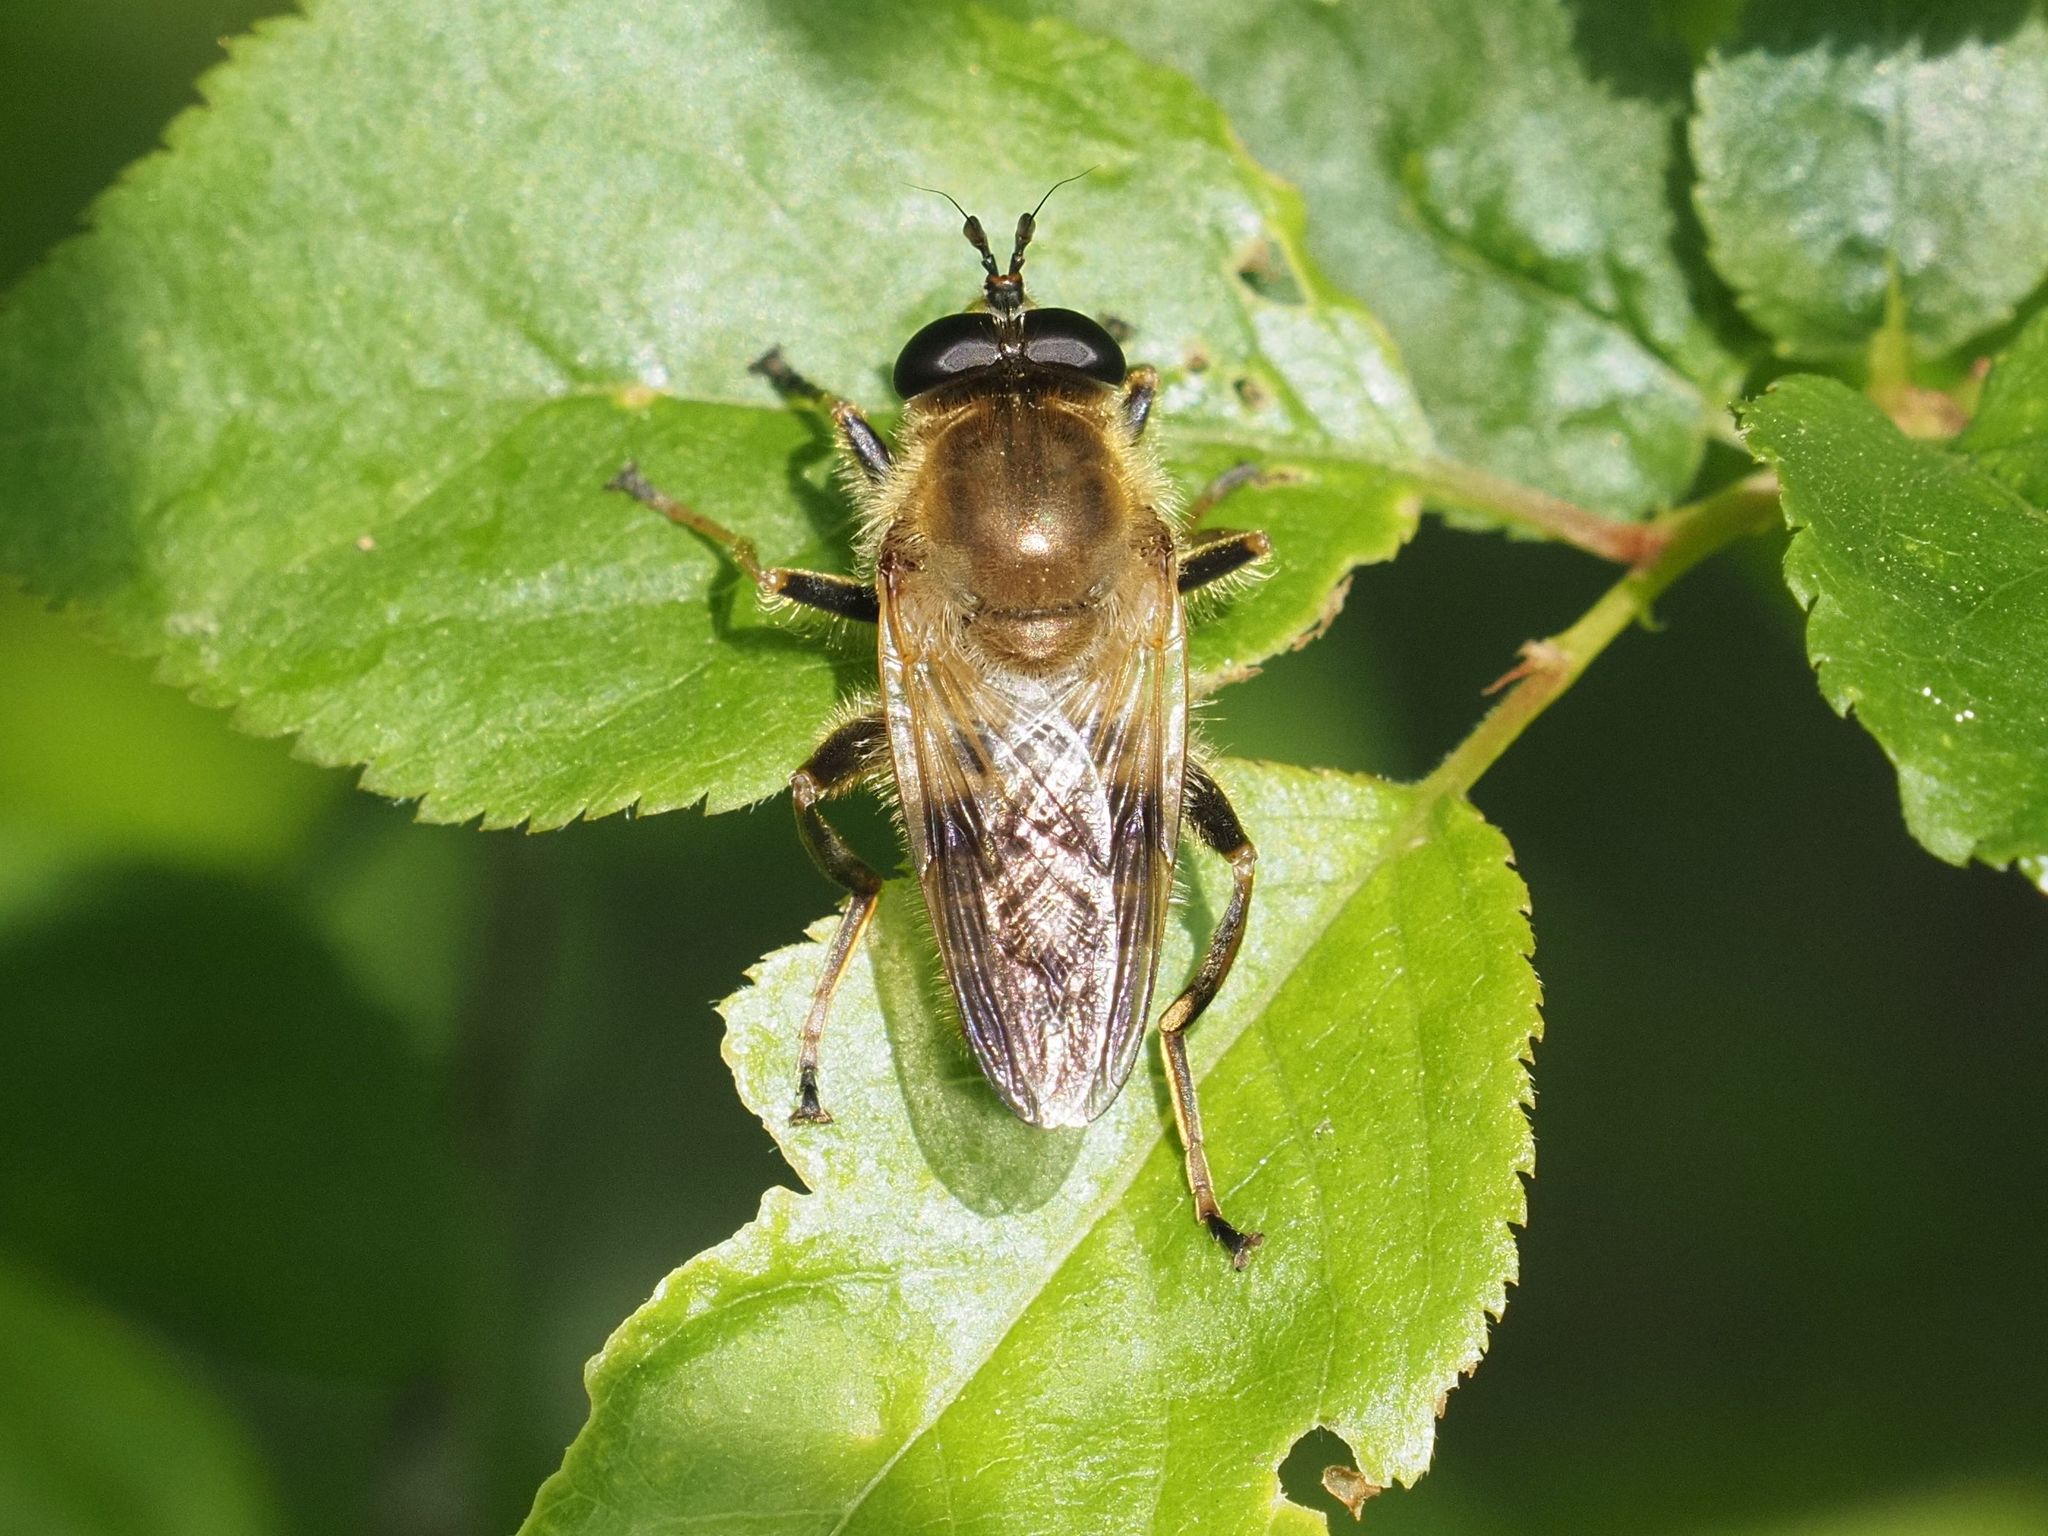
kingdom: Animalia
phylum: Arthropoda
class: Insecta
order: Diptera
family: Syrphidae
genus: Criorhina
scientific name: Criorhina asilica
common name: Pale-banded bear hoverfly
